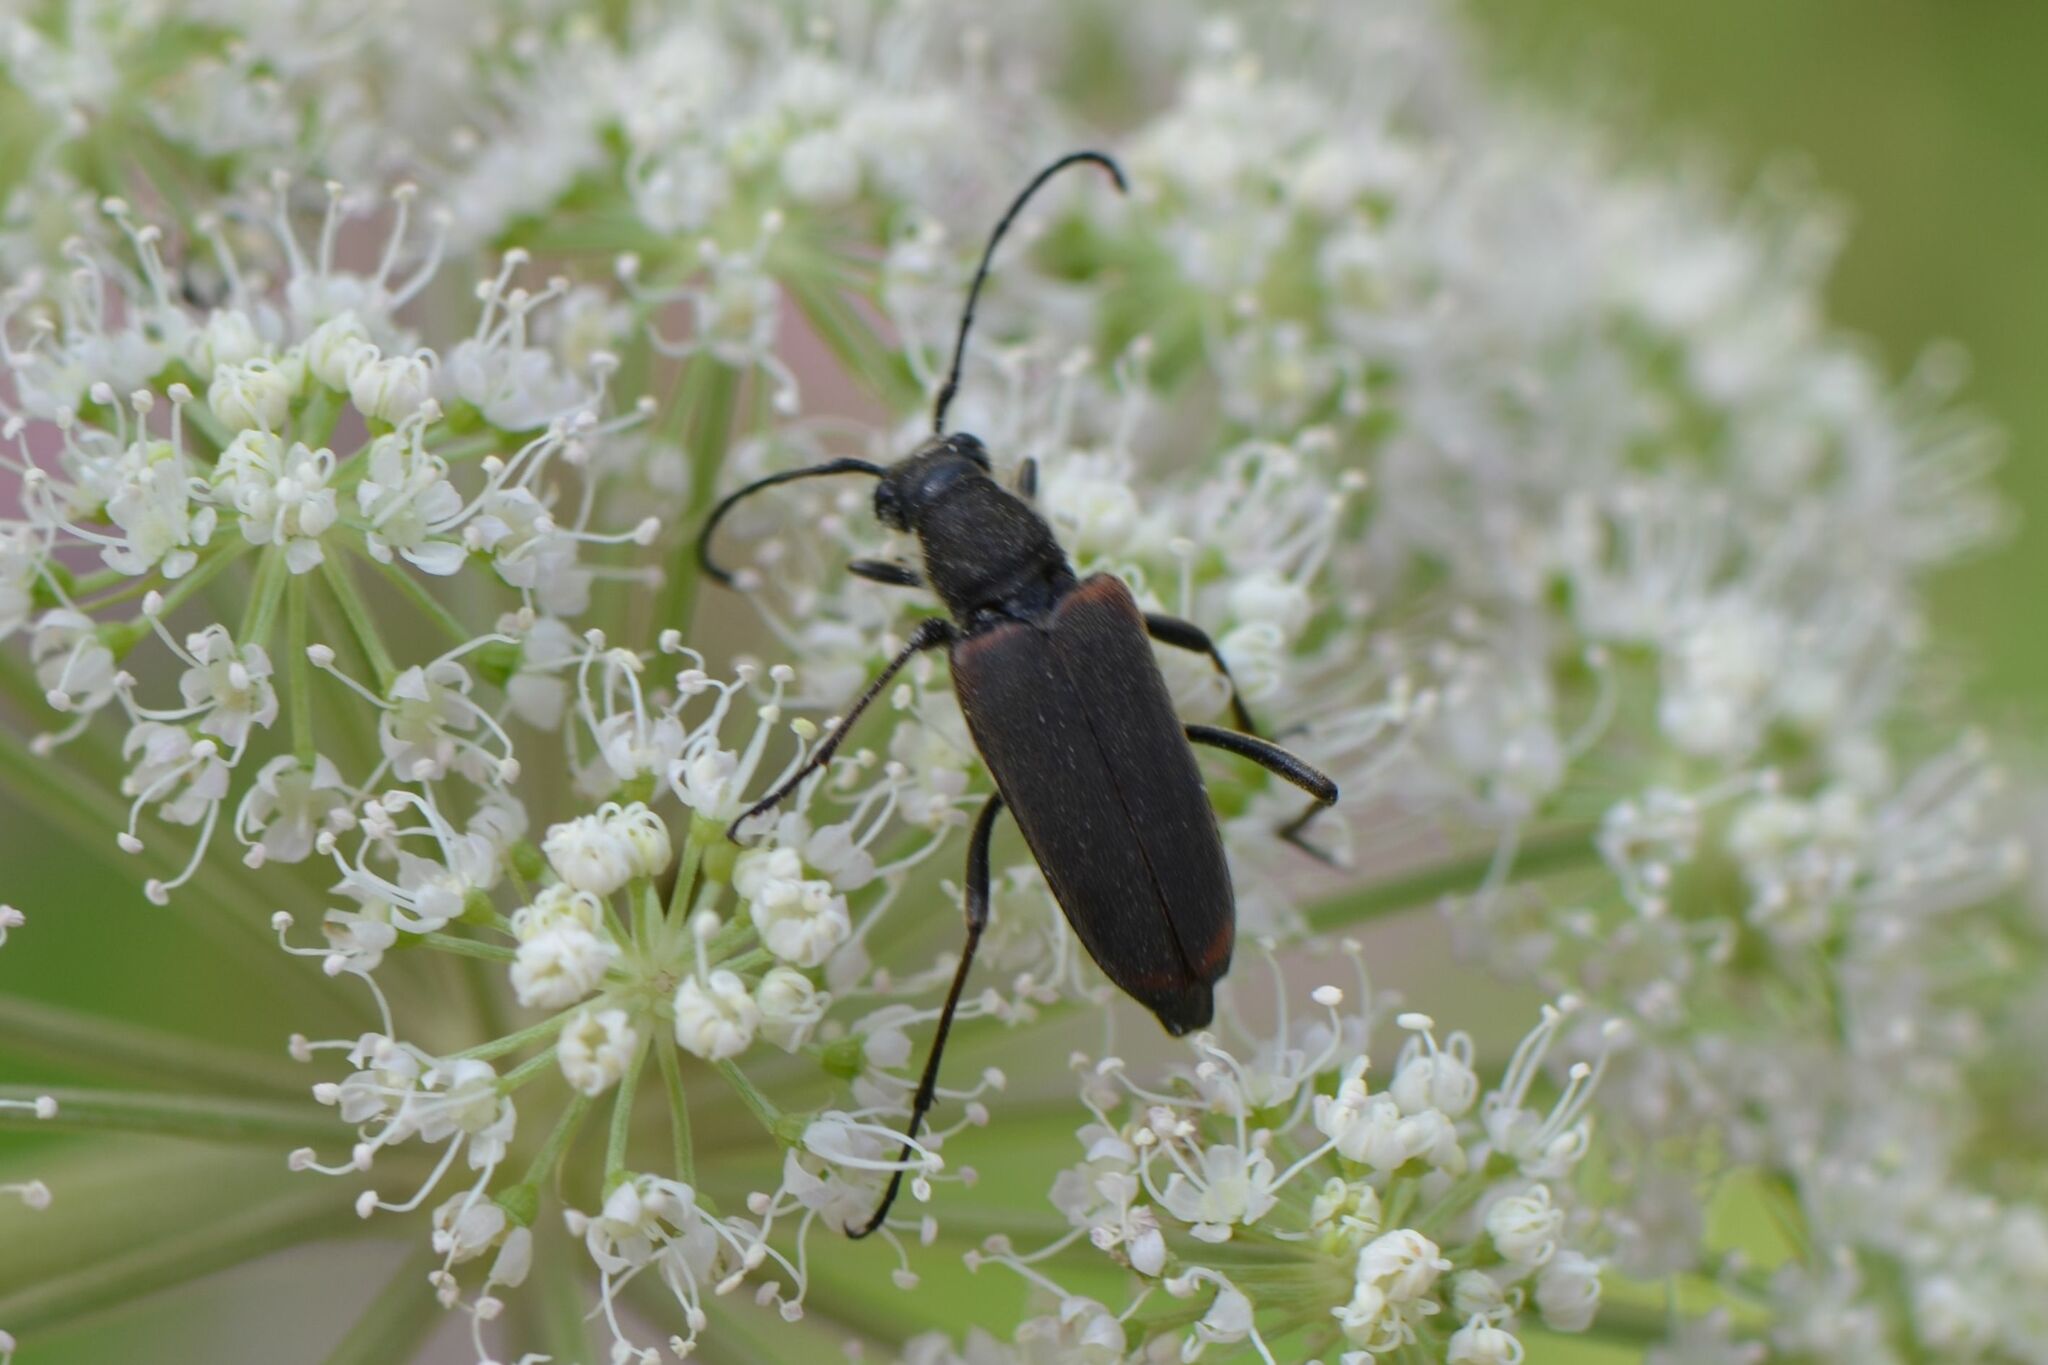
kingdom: Animalia
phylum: Arthropoda
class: Insecta
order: Coleoptera
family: Cerambycidae
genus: Anastrangalia
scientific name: Anastrangalia dubia
